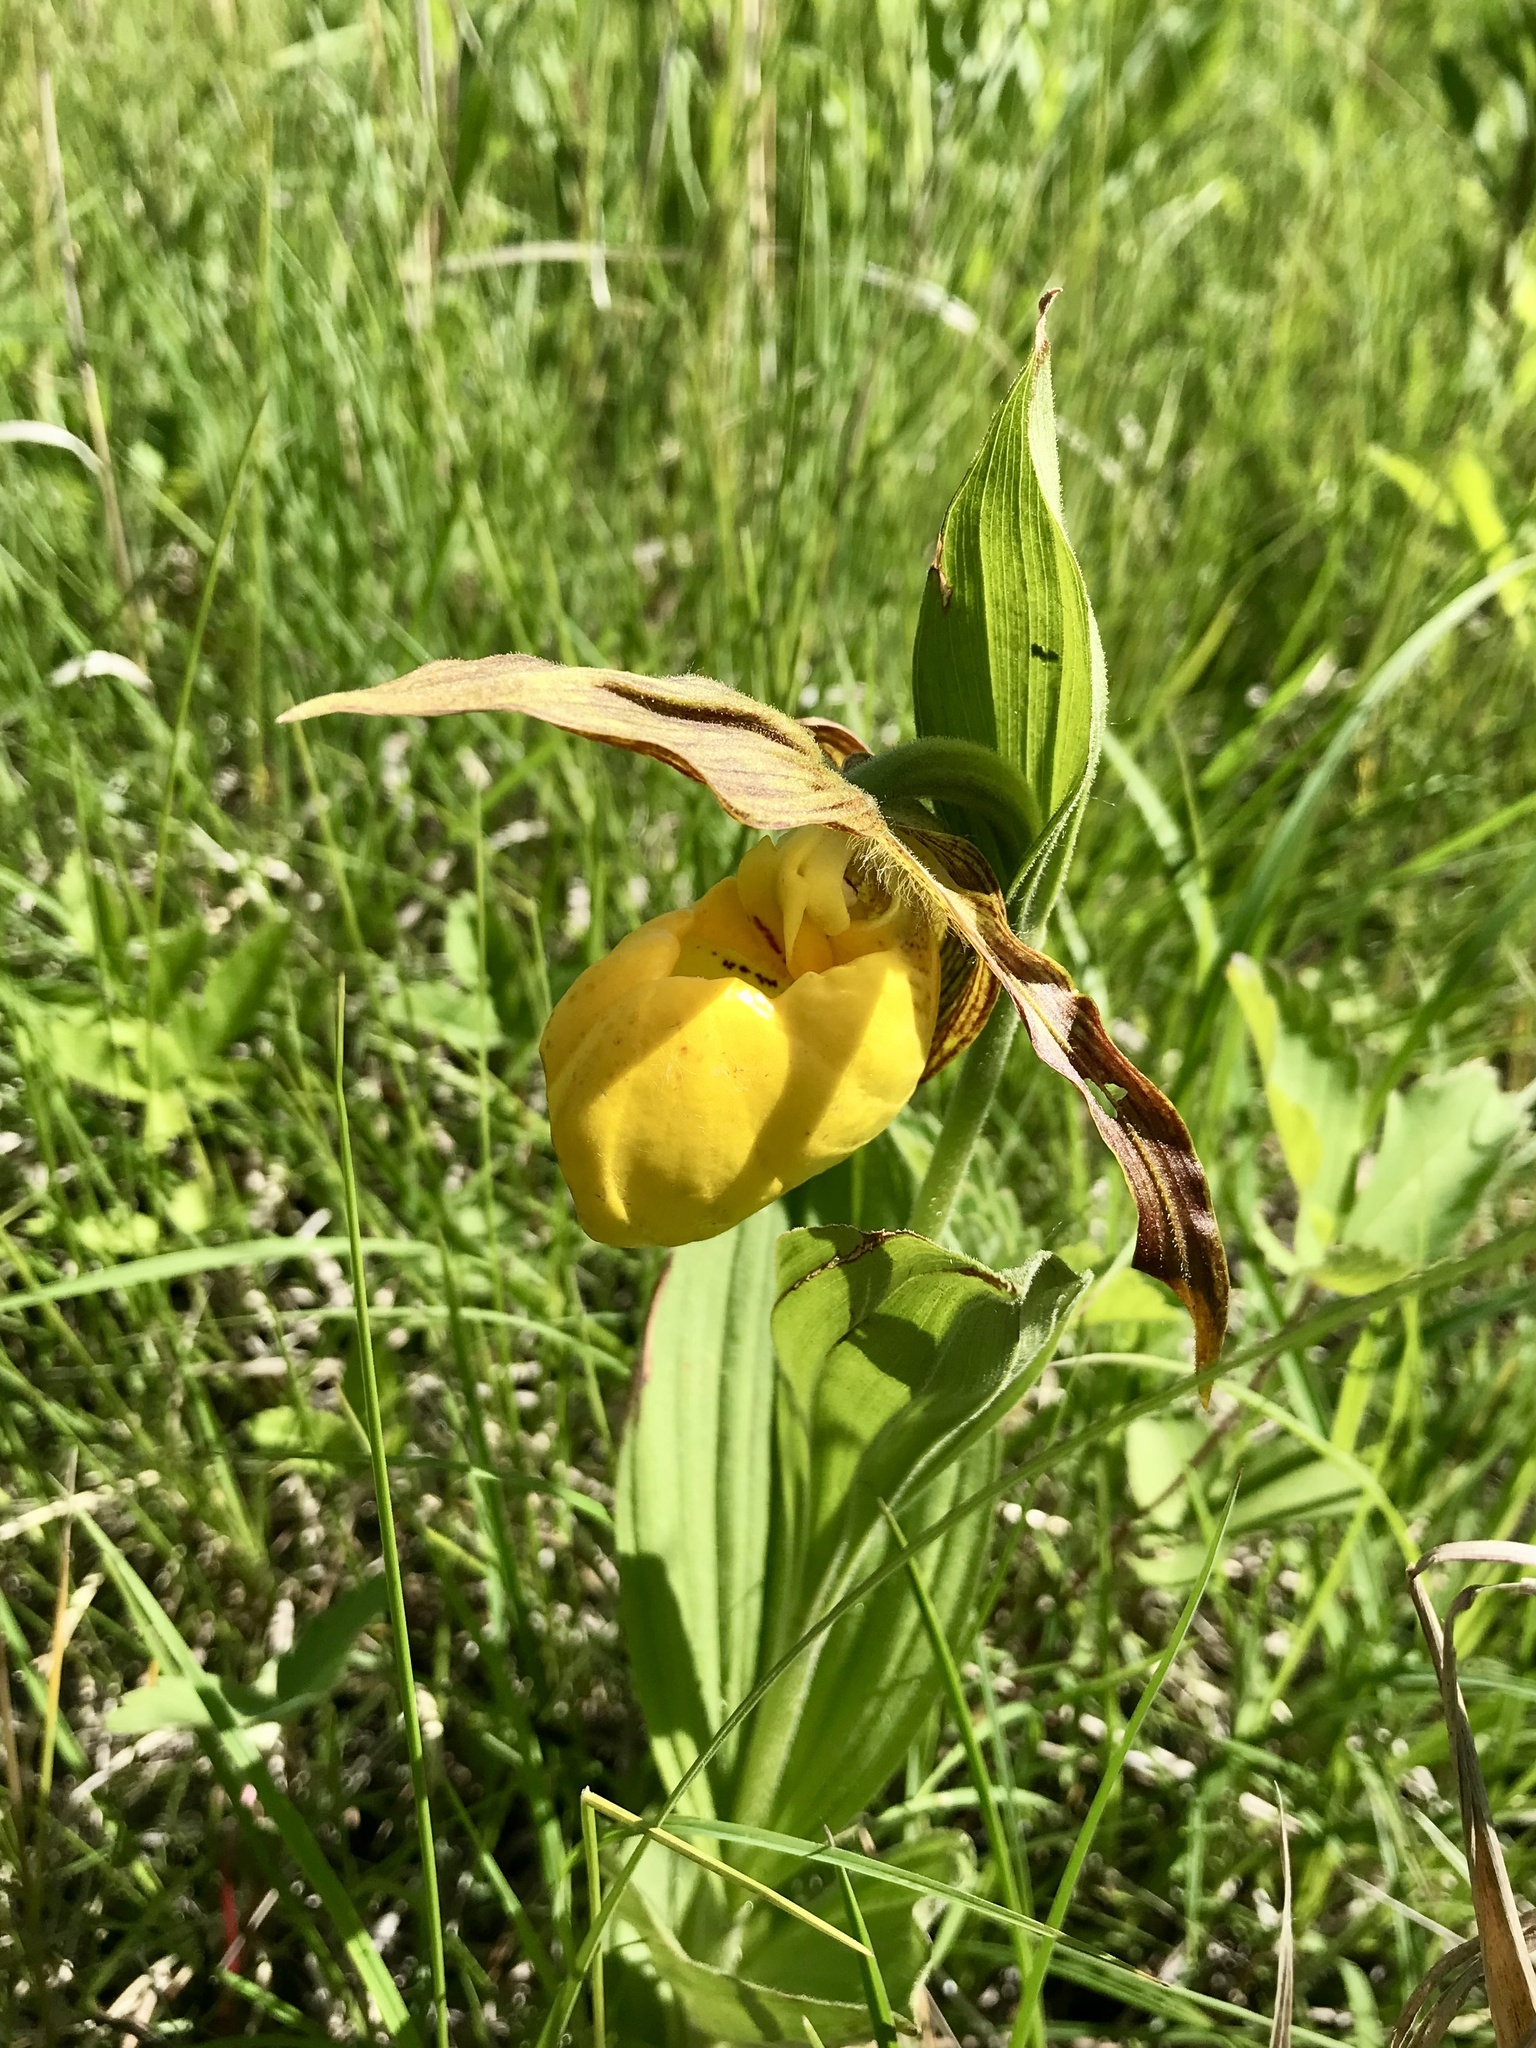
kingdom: Plantae
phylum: Tracheophyta
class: Liliopsida
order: Asparagales
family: Orchidaceae
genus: Cypripedium
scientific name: Cypripedium parviflorum
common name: American yellow lady's-slipper
